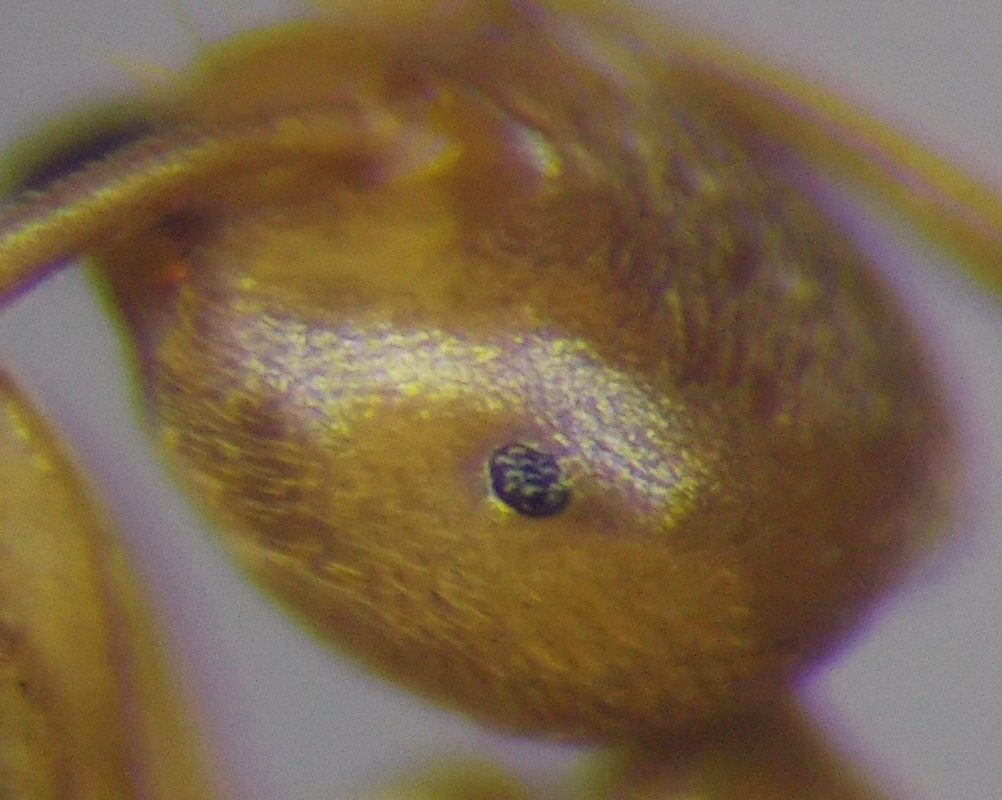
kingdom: Animalia
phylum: Arthropoda
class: Insecta
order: Hymenoptera
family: Formicidae
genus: Lasius
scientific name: Lasius flavus
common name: Blond field ant
